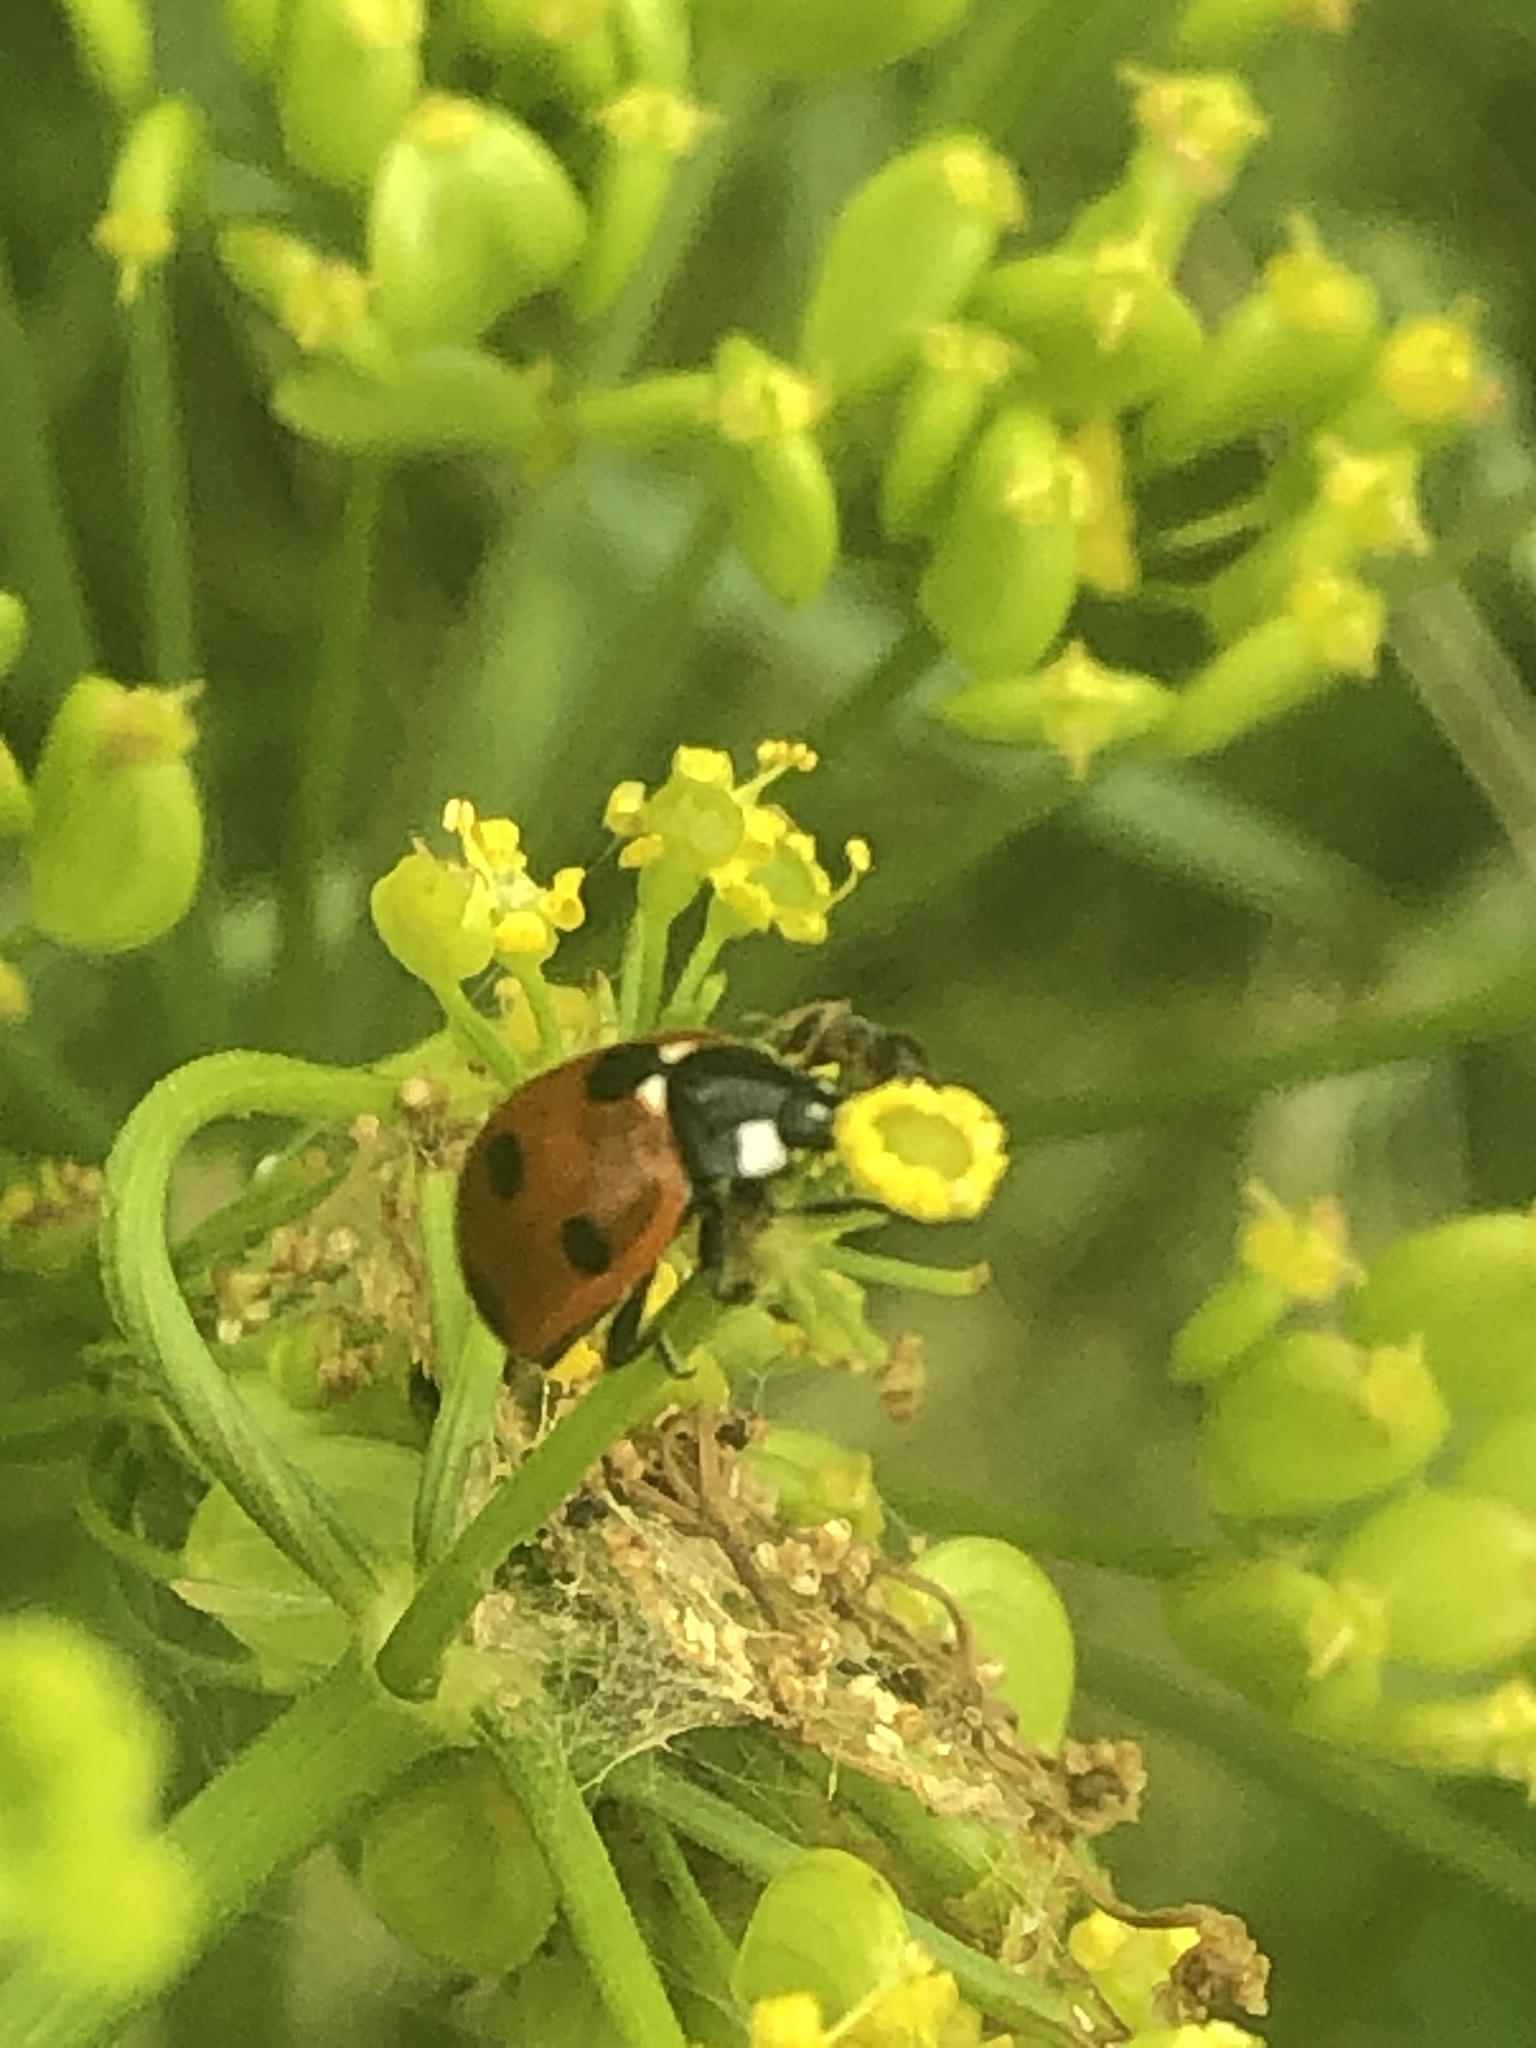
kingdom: Animalia
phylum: Arthropoda
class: Insecta
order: Coleoptera
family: Coccinellidae
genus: Coccinella
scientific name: Coccinella septempunctata
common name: Sevenspotted lady beetle
